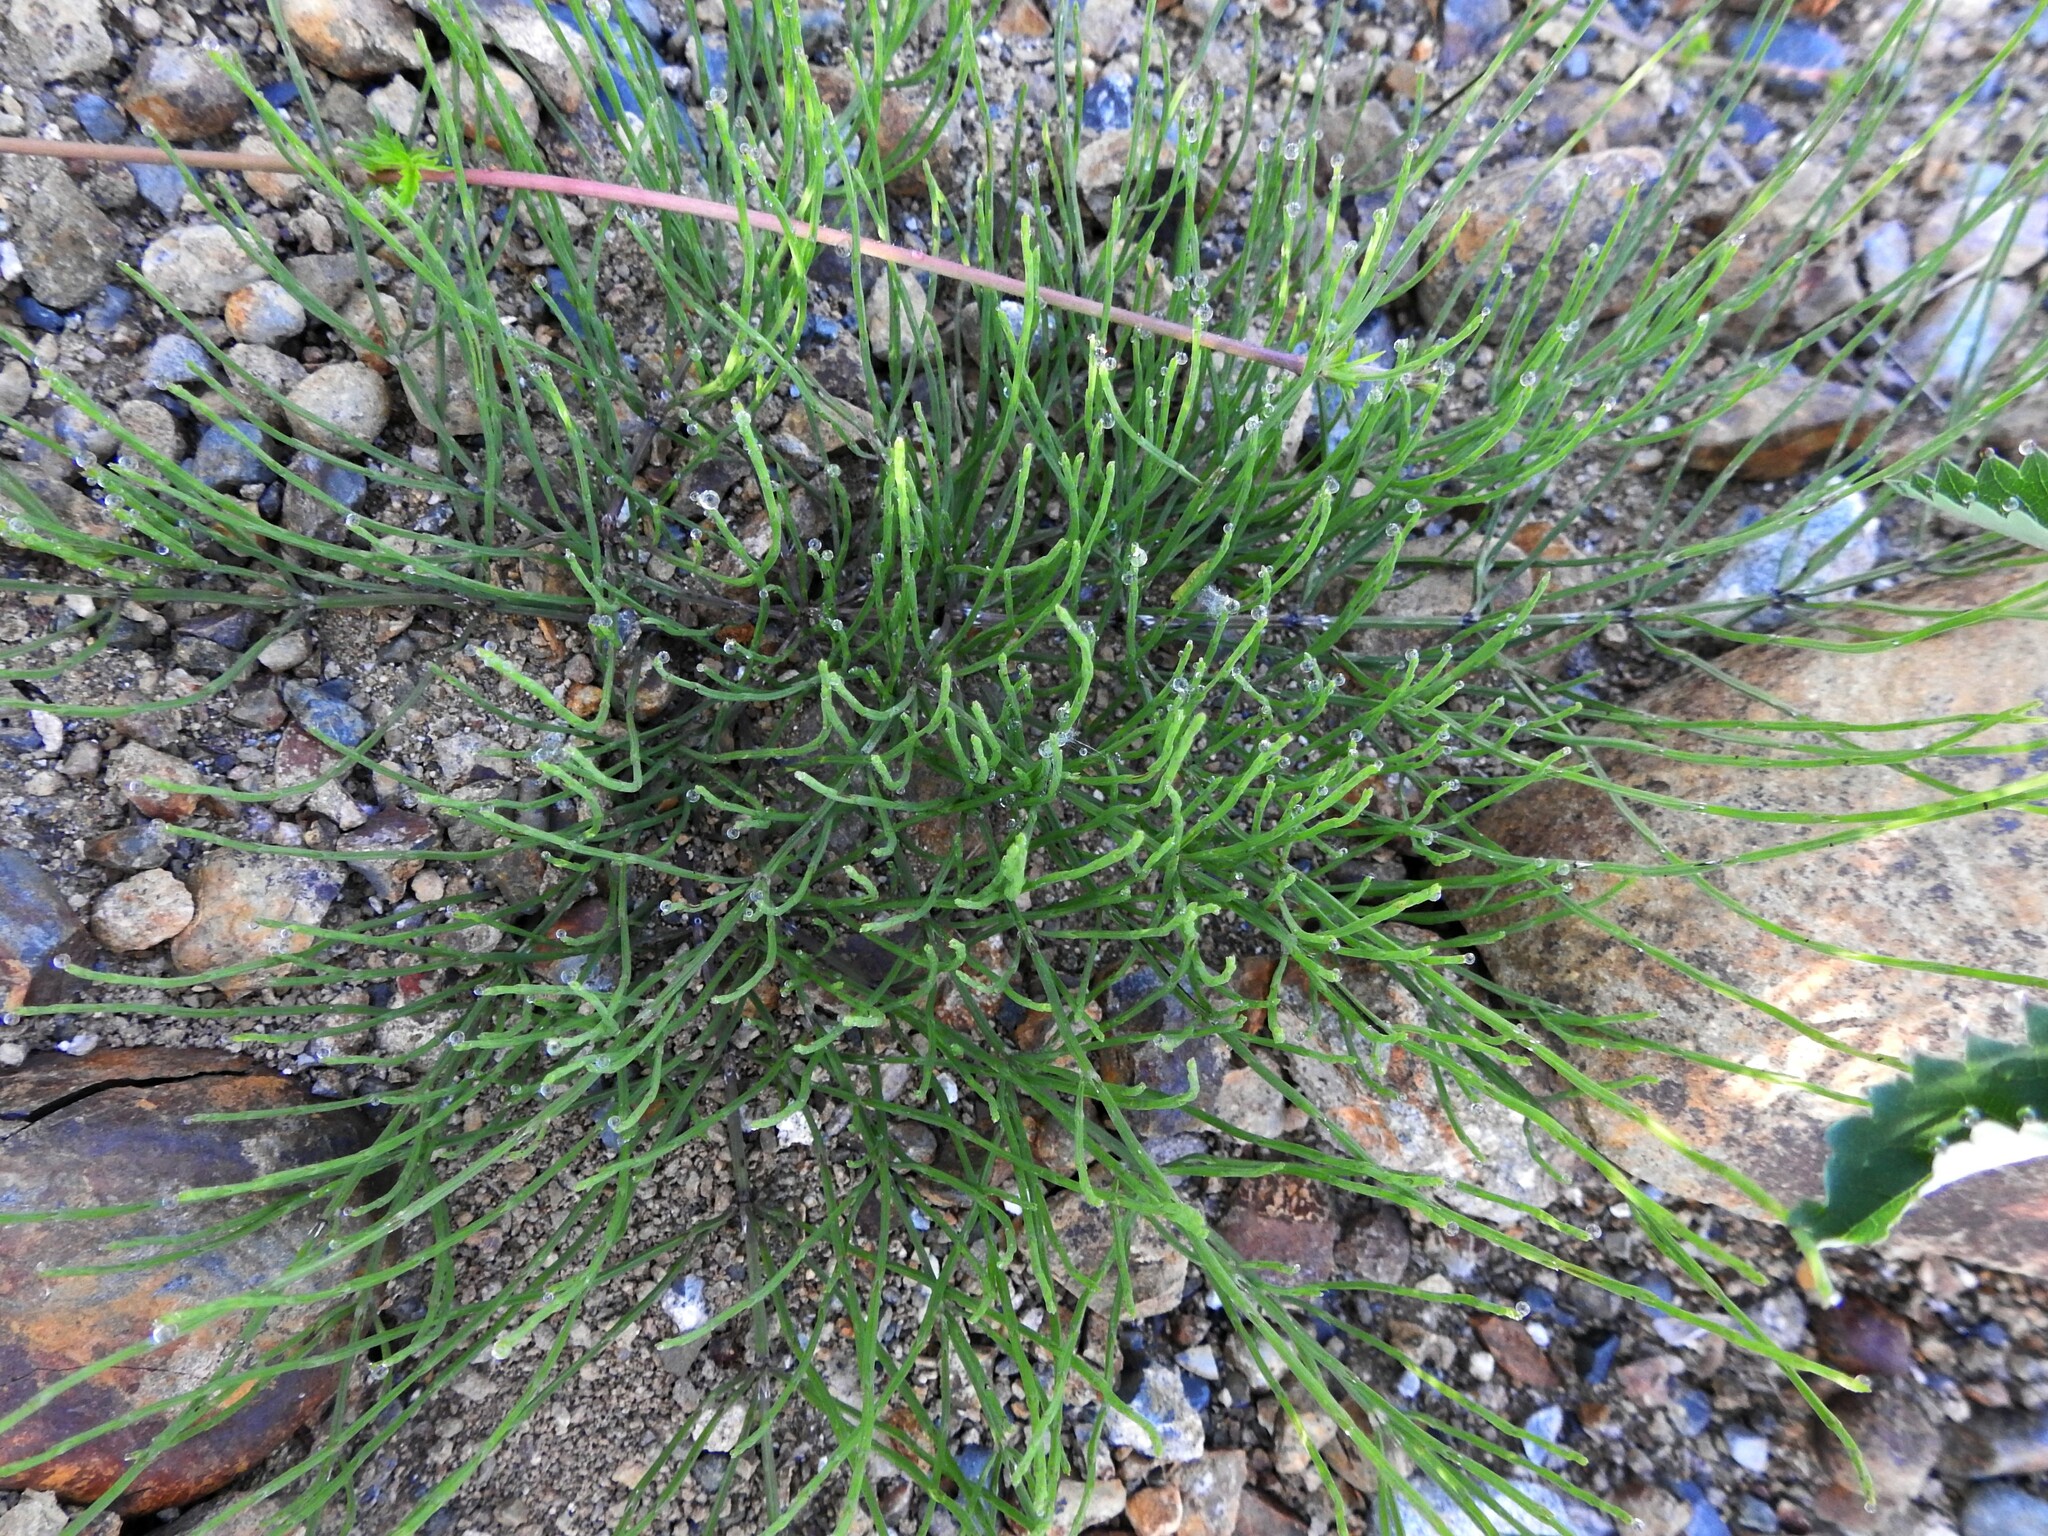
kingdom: Plantae
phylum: Tracheophyta
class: Polypodiopsida
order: Equisetales
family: Equisetaceae
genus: Equisetum
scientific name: Equisetum arvense
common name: Field horsetail
